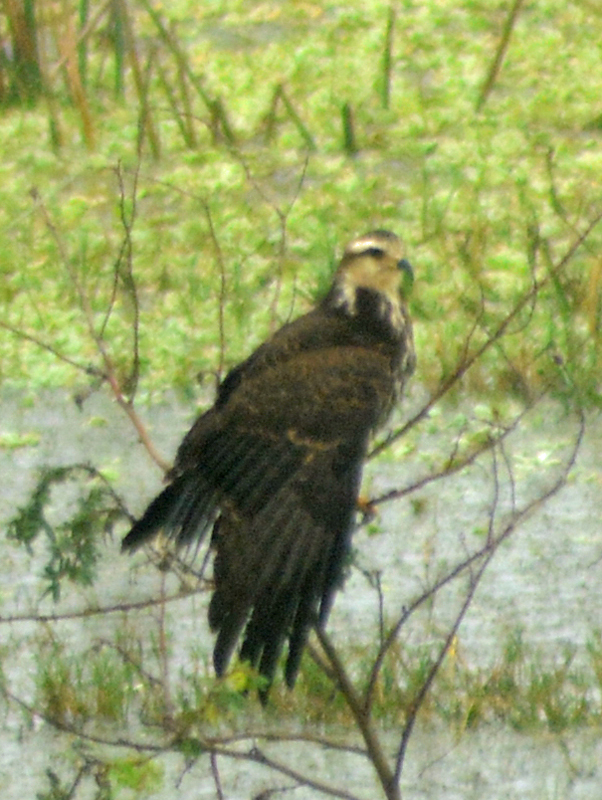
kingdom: Animalia
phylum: Chordata
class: Aves
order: Accipitriformes
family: Accipitridae
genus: Rostrhamus
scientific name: Rostrhamus sociabilis
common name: Snail kite
